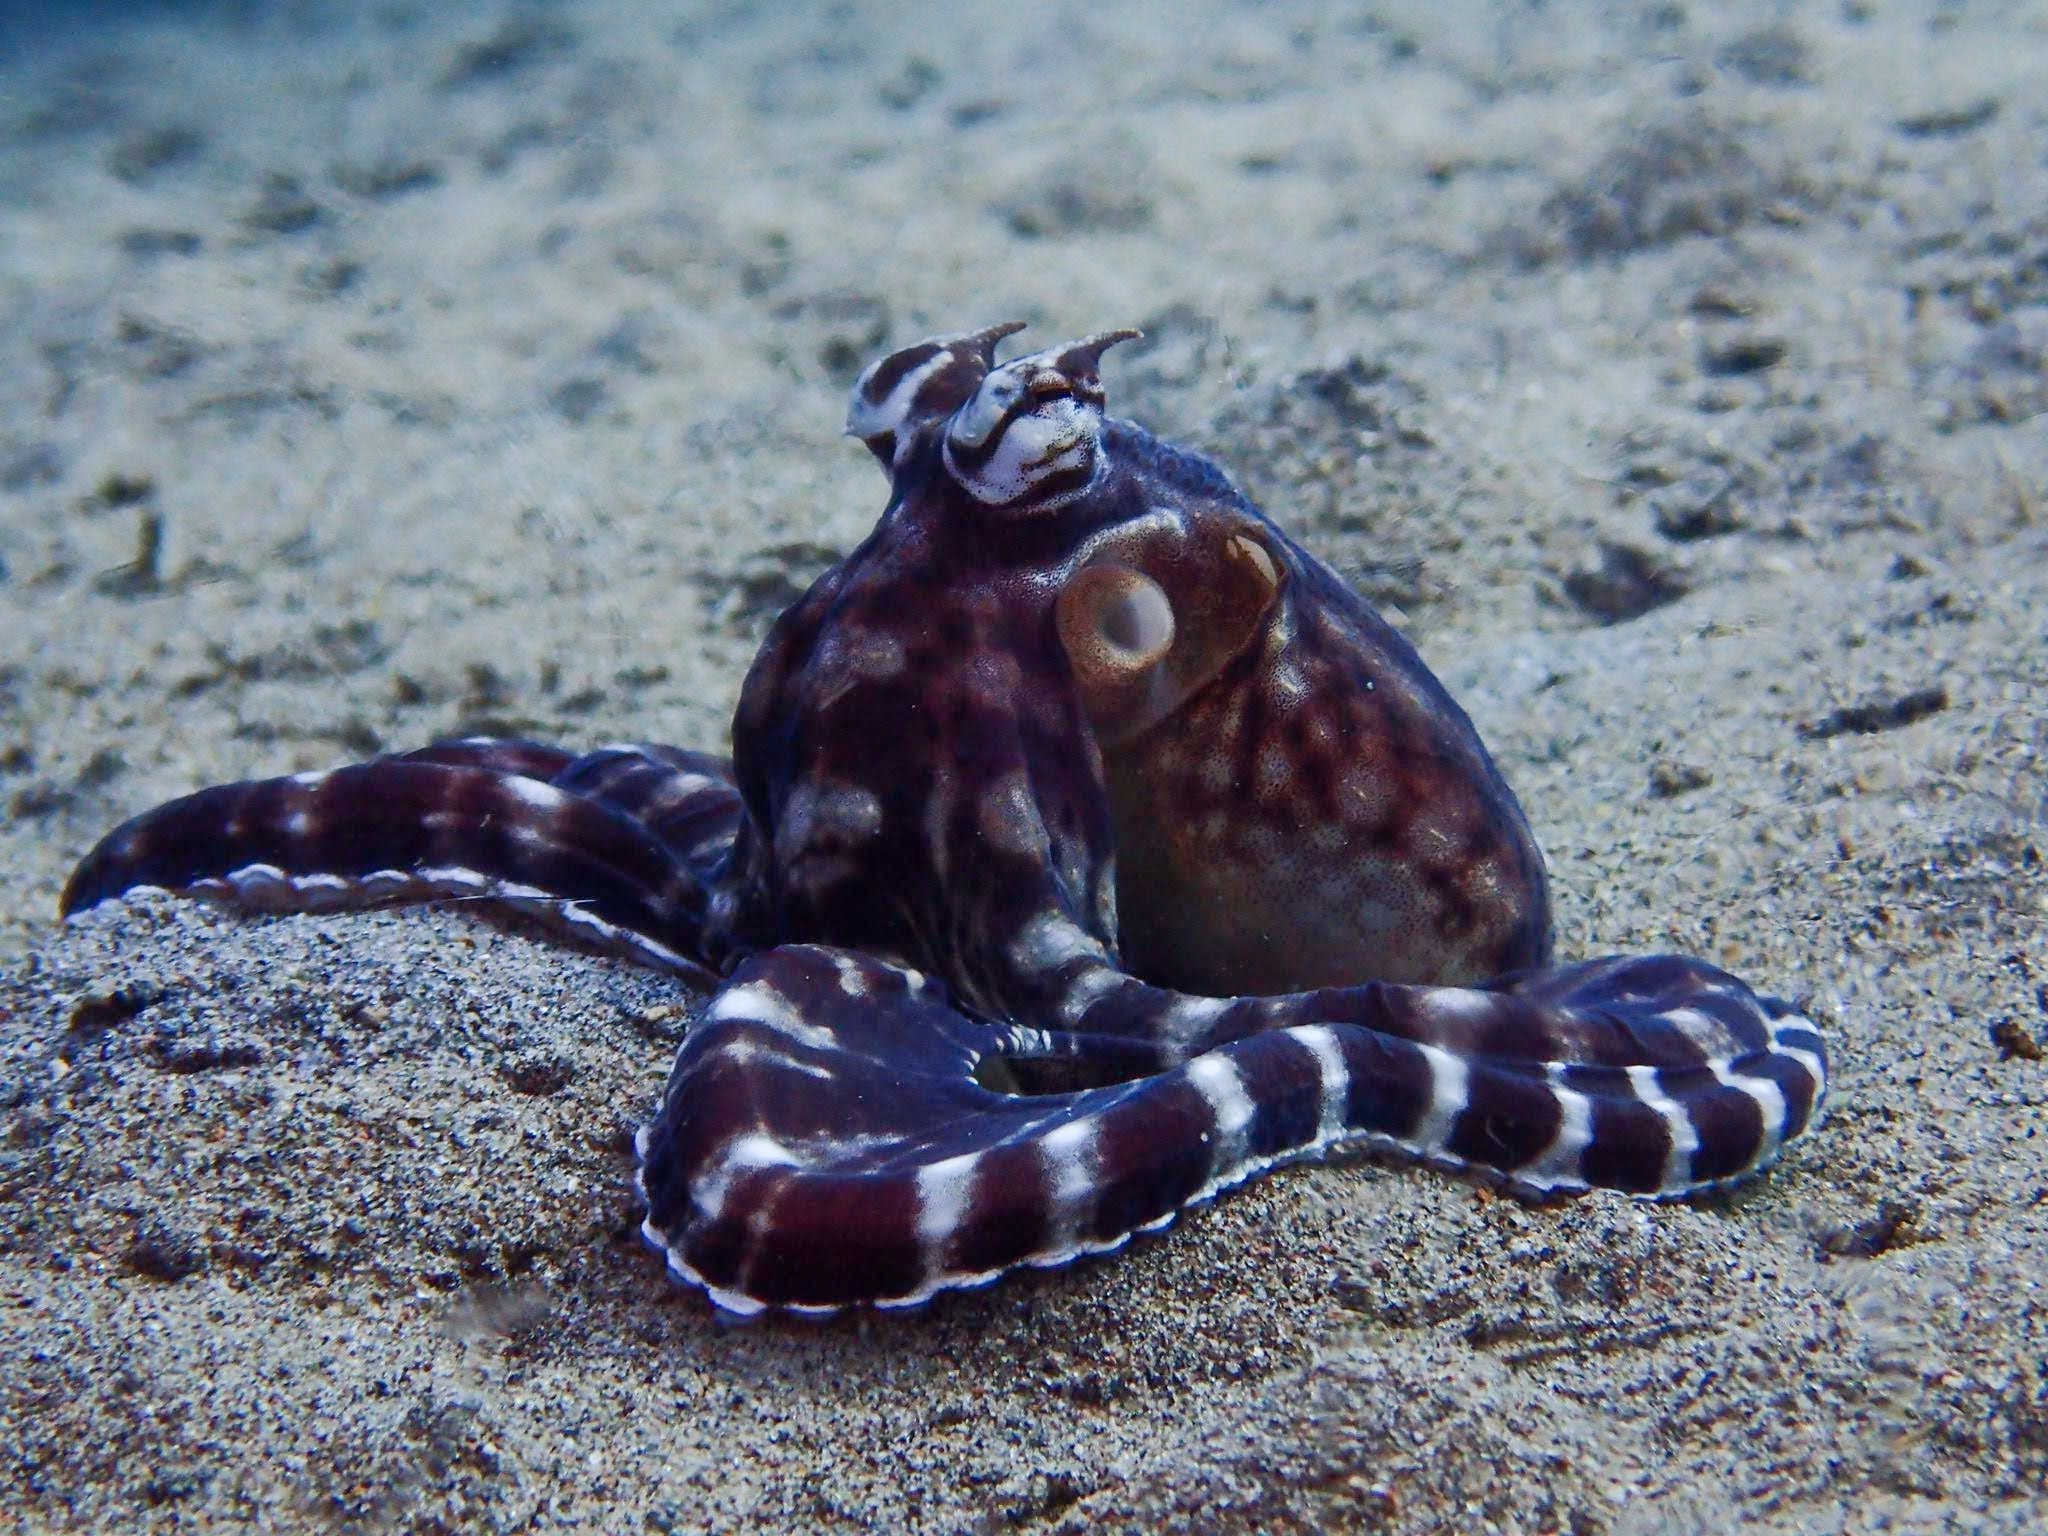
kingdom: Animalia
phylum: Mollusca
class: Cephalopoda
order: Octopoda
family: Octopodidae
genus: Thaumoctopus
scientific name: Thaumoctopus mimicus
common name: Mimic octopus
